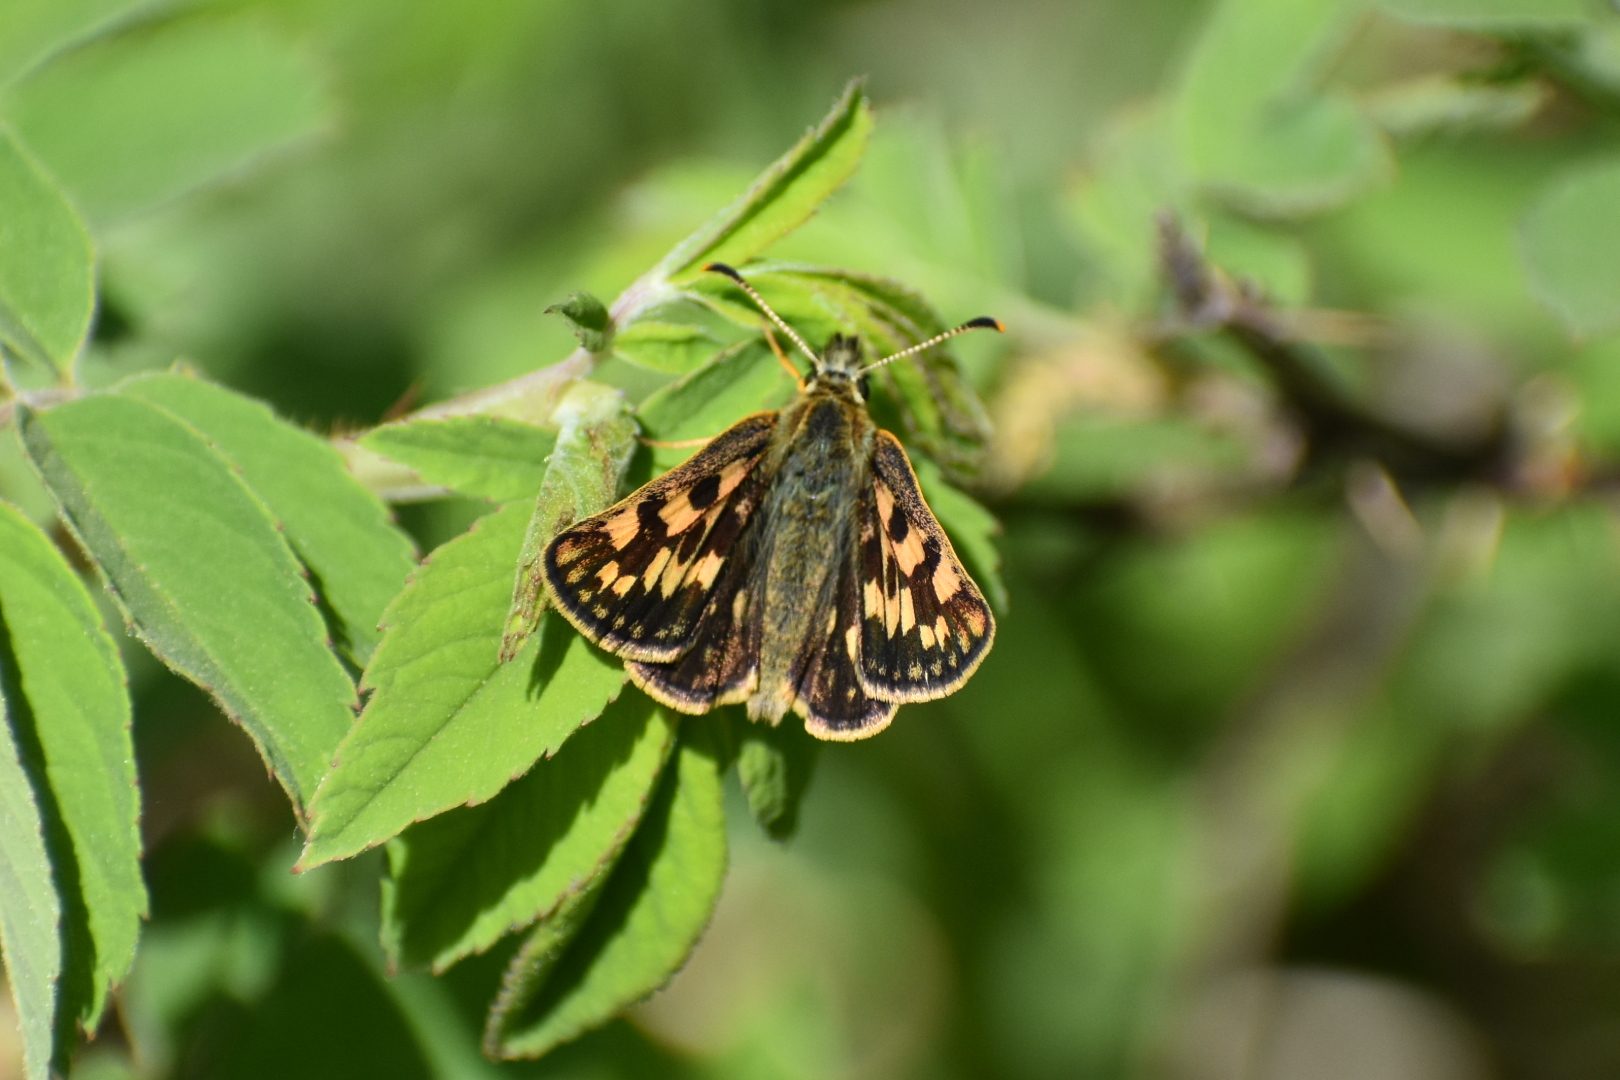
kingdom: Animalia
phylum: Arthropoda
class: Insecta
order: Lepidoptera
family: Hesperiidae
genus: Carterocephalus
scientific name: Carterocephalus palaemon
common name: Chequered skipper
